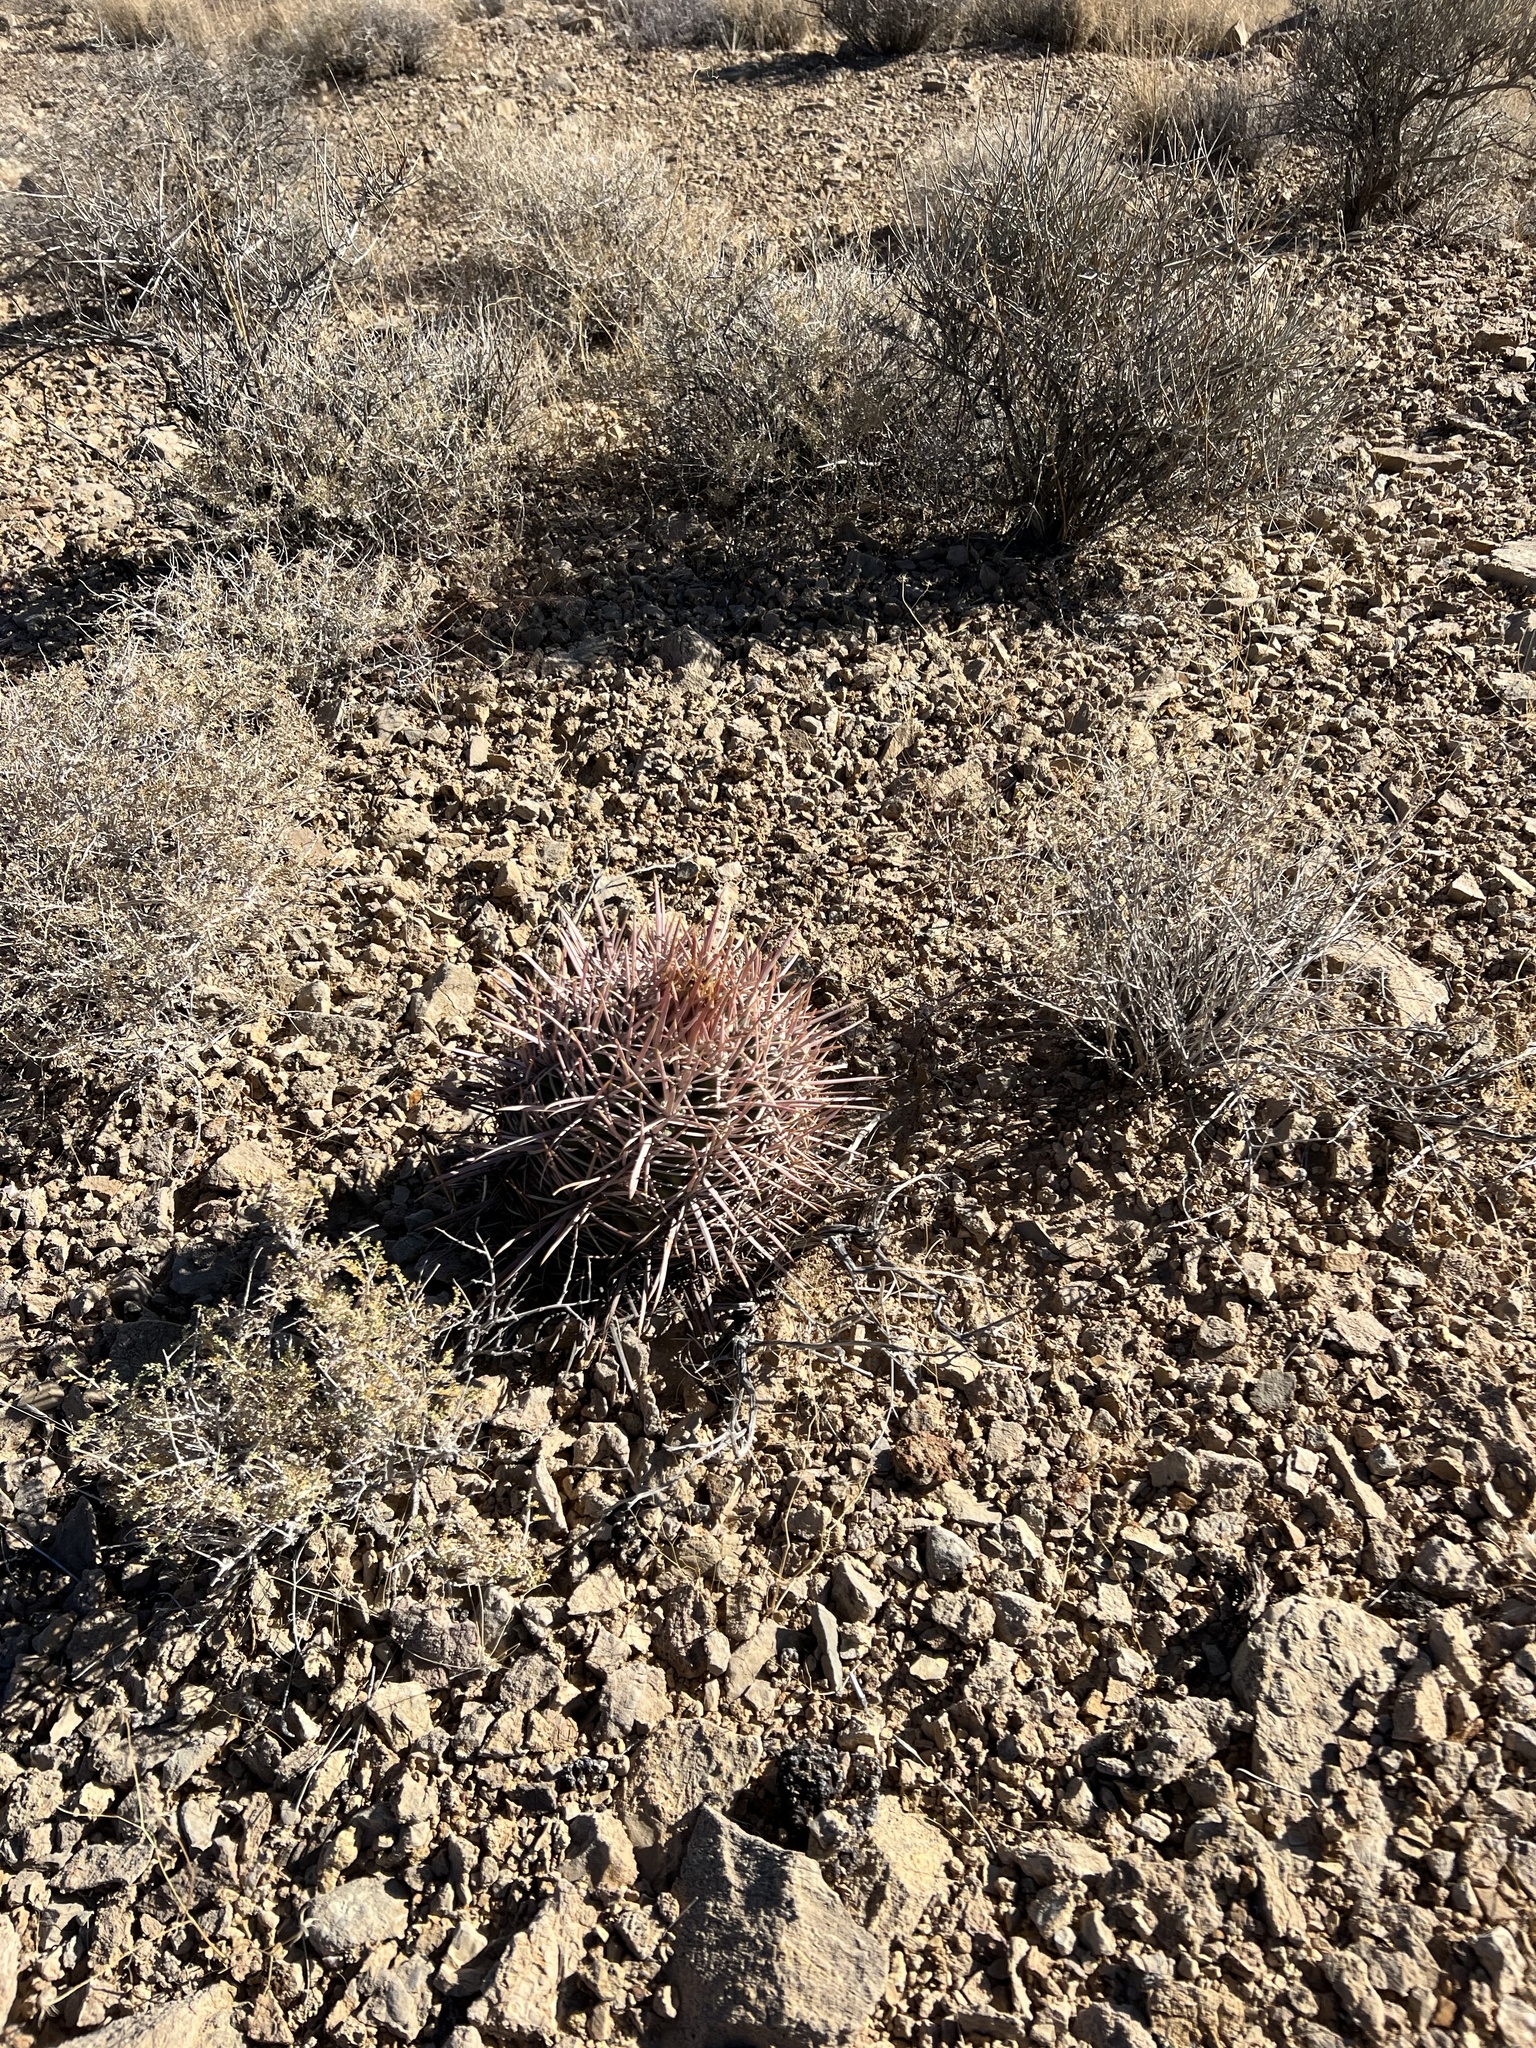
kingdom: Plantae
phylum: Tracheophyta
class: Magnoliopsida
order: Caryophyllales
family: Cactaceae
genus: Echinocactus
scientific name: Echinocactus polycephalus
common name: Cottontop cactus
